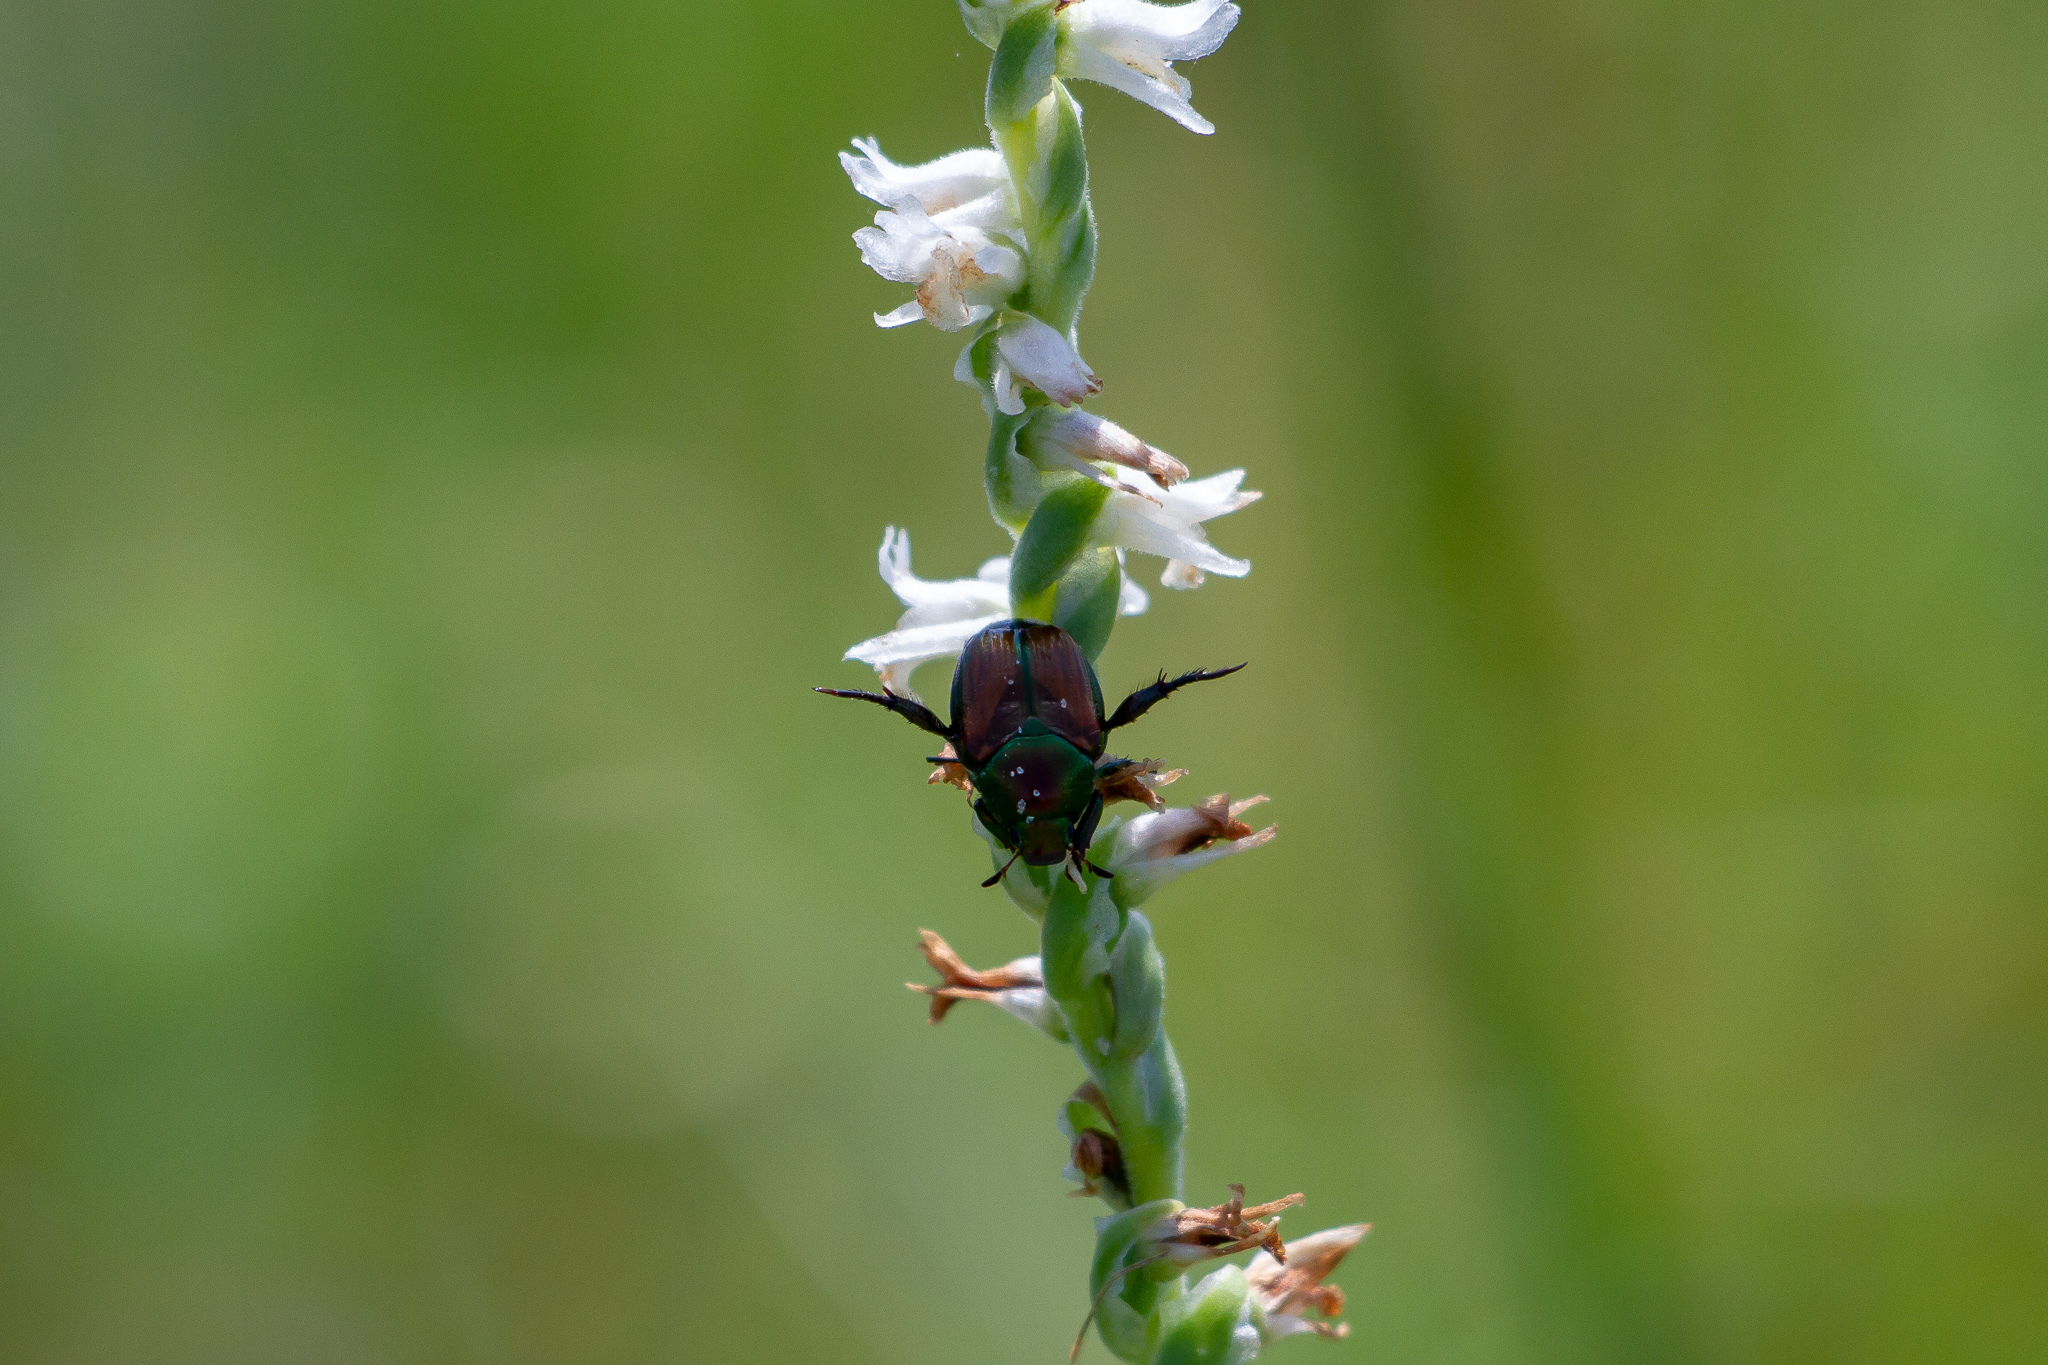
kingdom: Animalia
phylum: Arthropoda
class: Insecta
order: Coleoptera
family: Scarabaeidae
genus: Popillia
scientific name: Popillia japonica
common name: Japanese beetle
